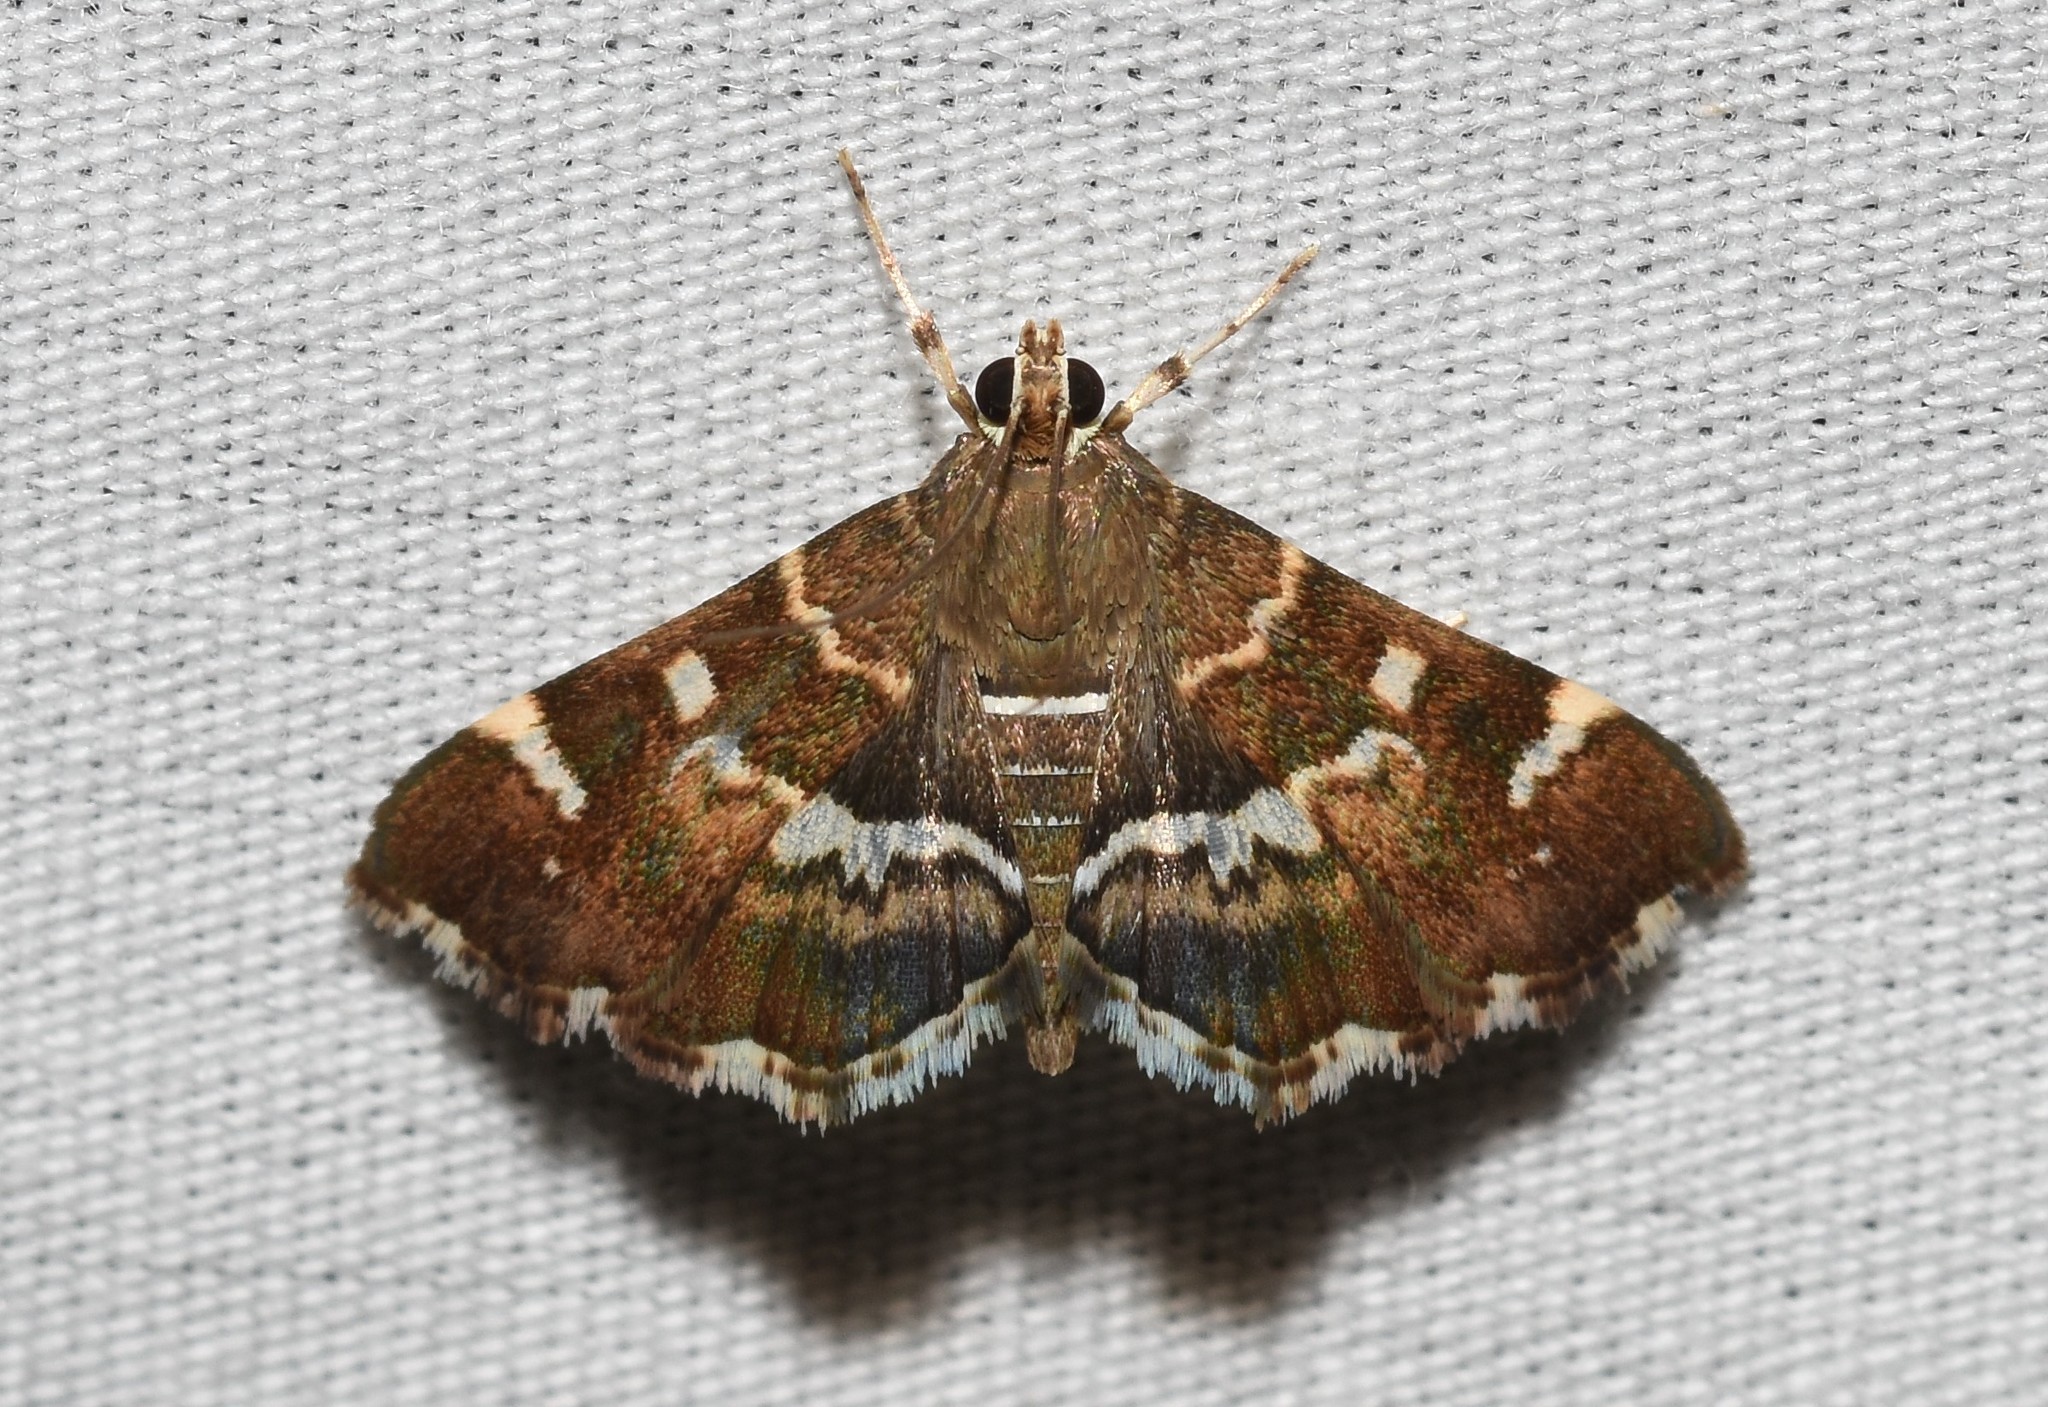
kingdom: Animalia
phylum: Arthropoda
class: Insecta
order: Lepidoptera
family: Crambidae
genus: Hymenia
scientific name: Hymenia perspectalis
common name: Spotted beet webworm
